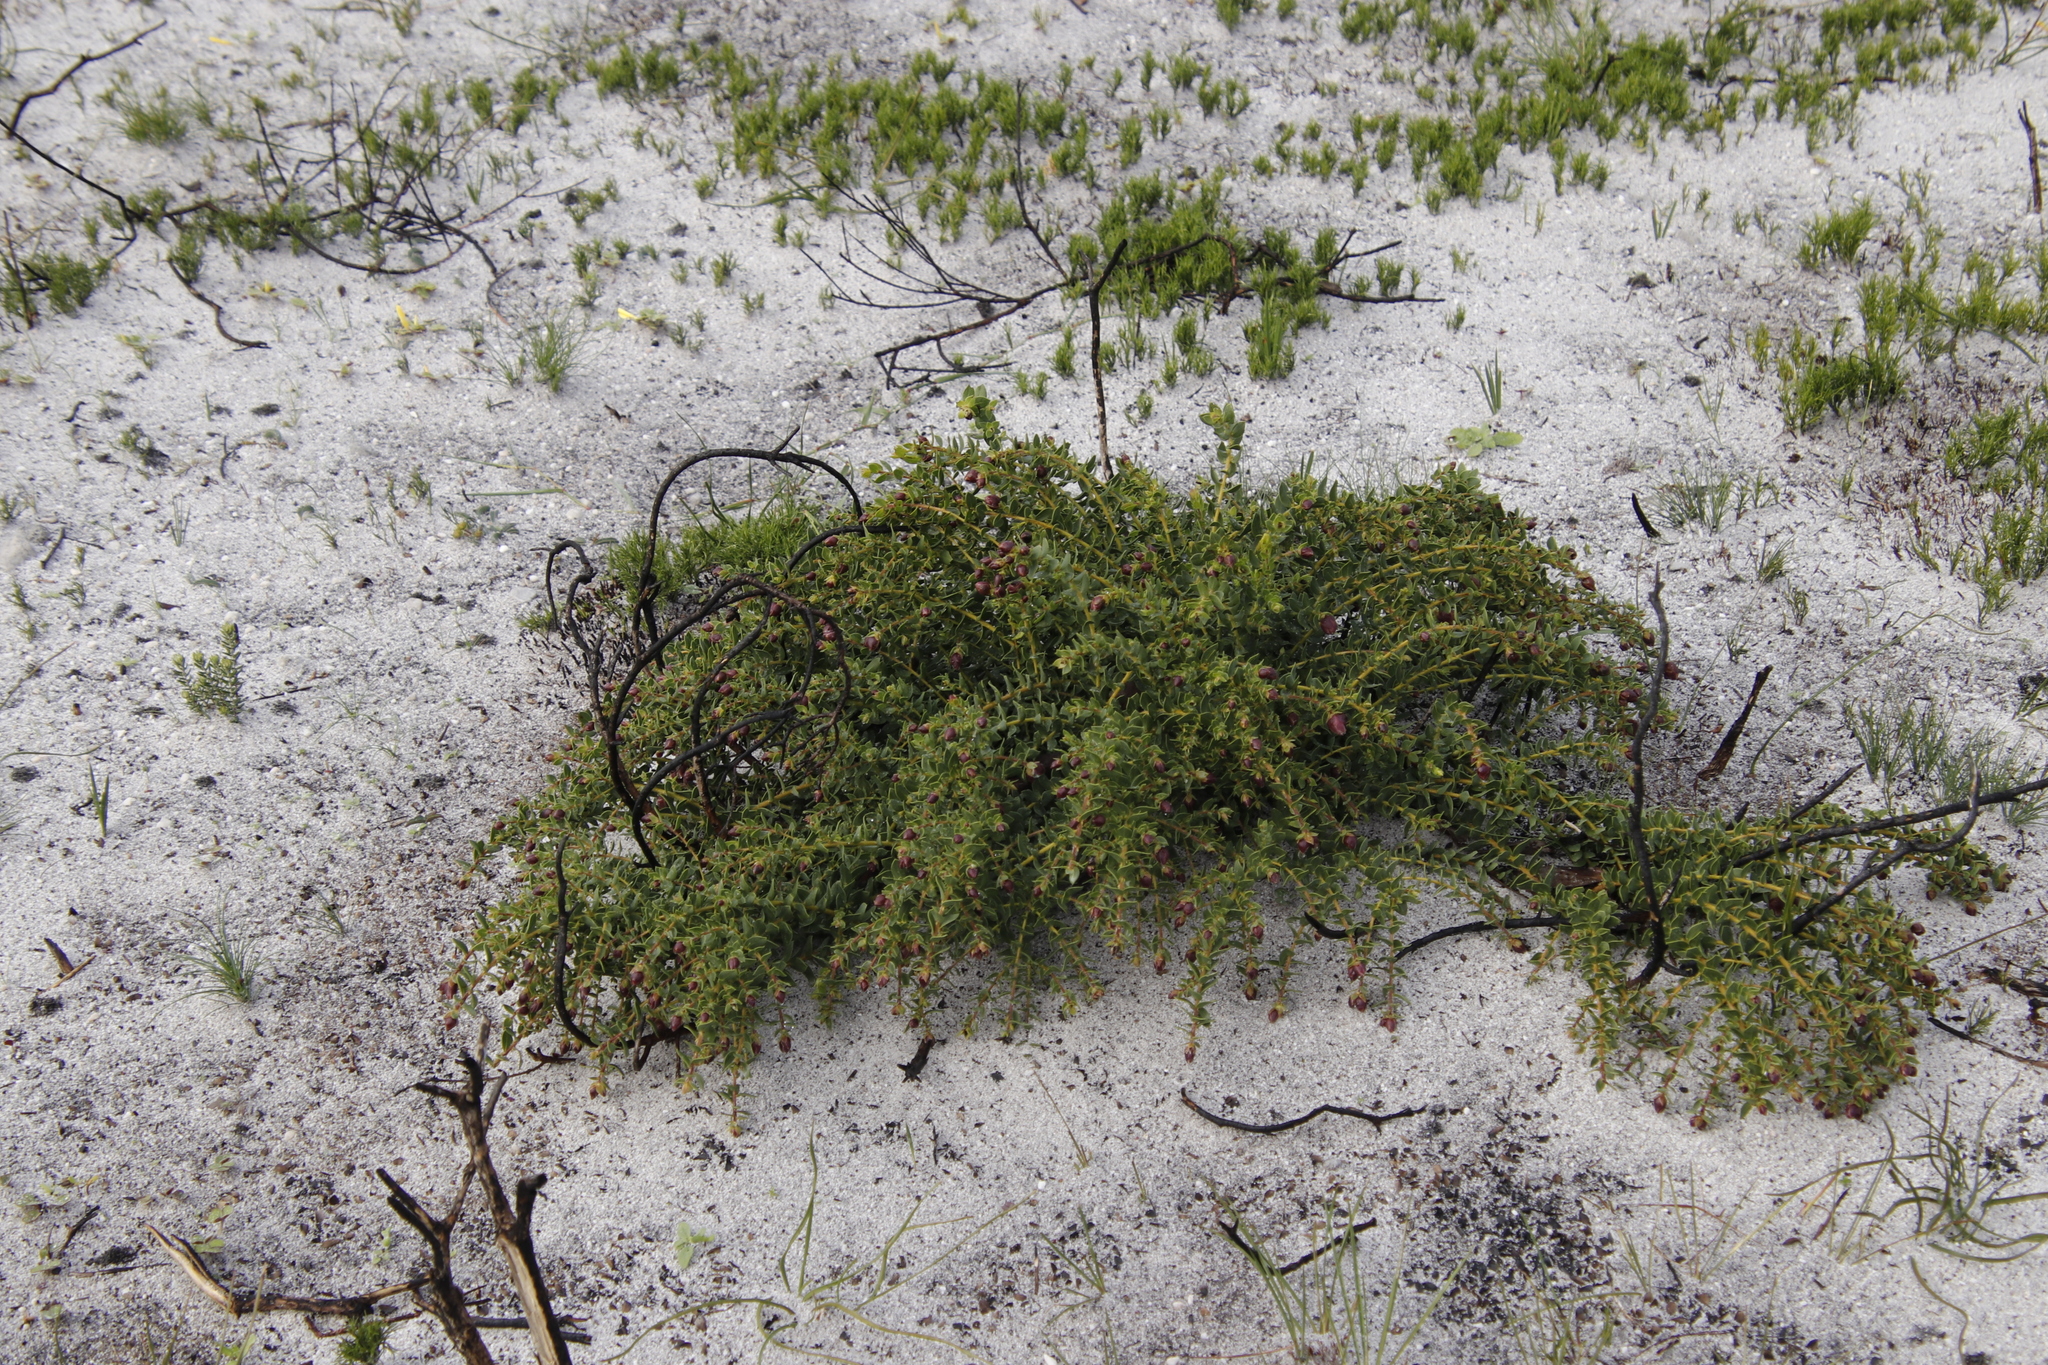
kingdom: Plantae
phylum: Tracheophyta
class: Magnoliopsida
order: Fabales
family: Fabaceae
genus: Liparia
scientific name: Liparia parva
